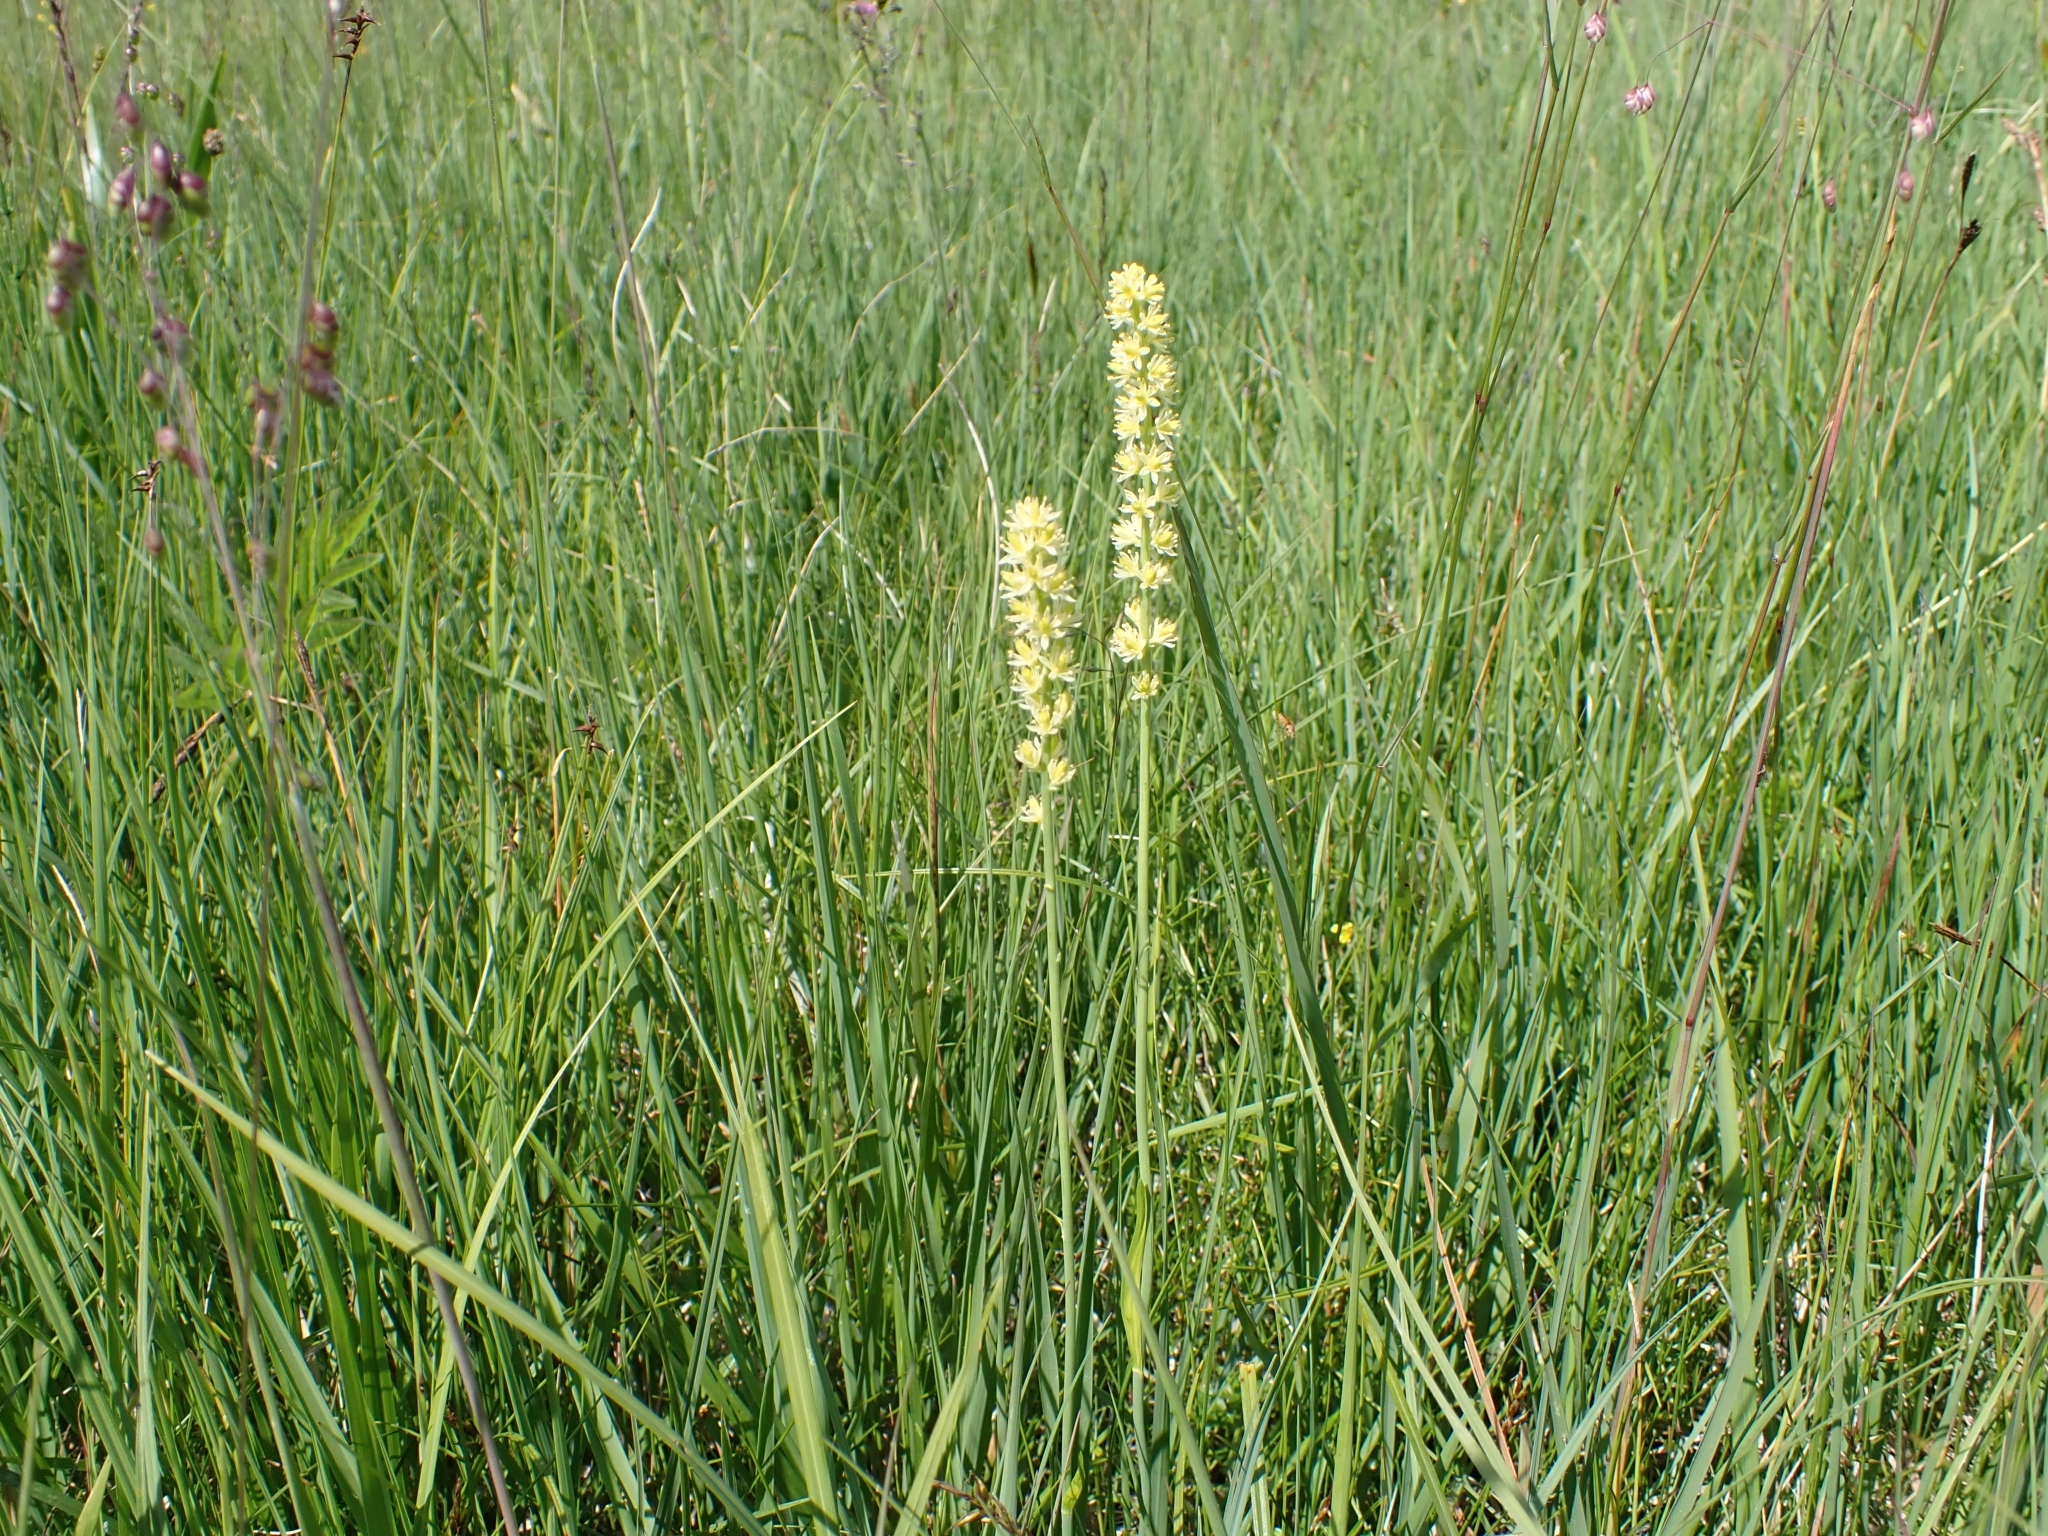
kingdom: Plantae
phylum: Tracheophyta
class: Liliopsida
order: Alismatales
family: Tofieldiaceae
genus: Tofieldia
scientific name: Tofieldia calyculata
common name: German-asphodel
